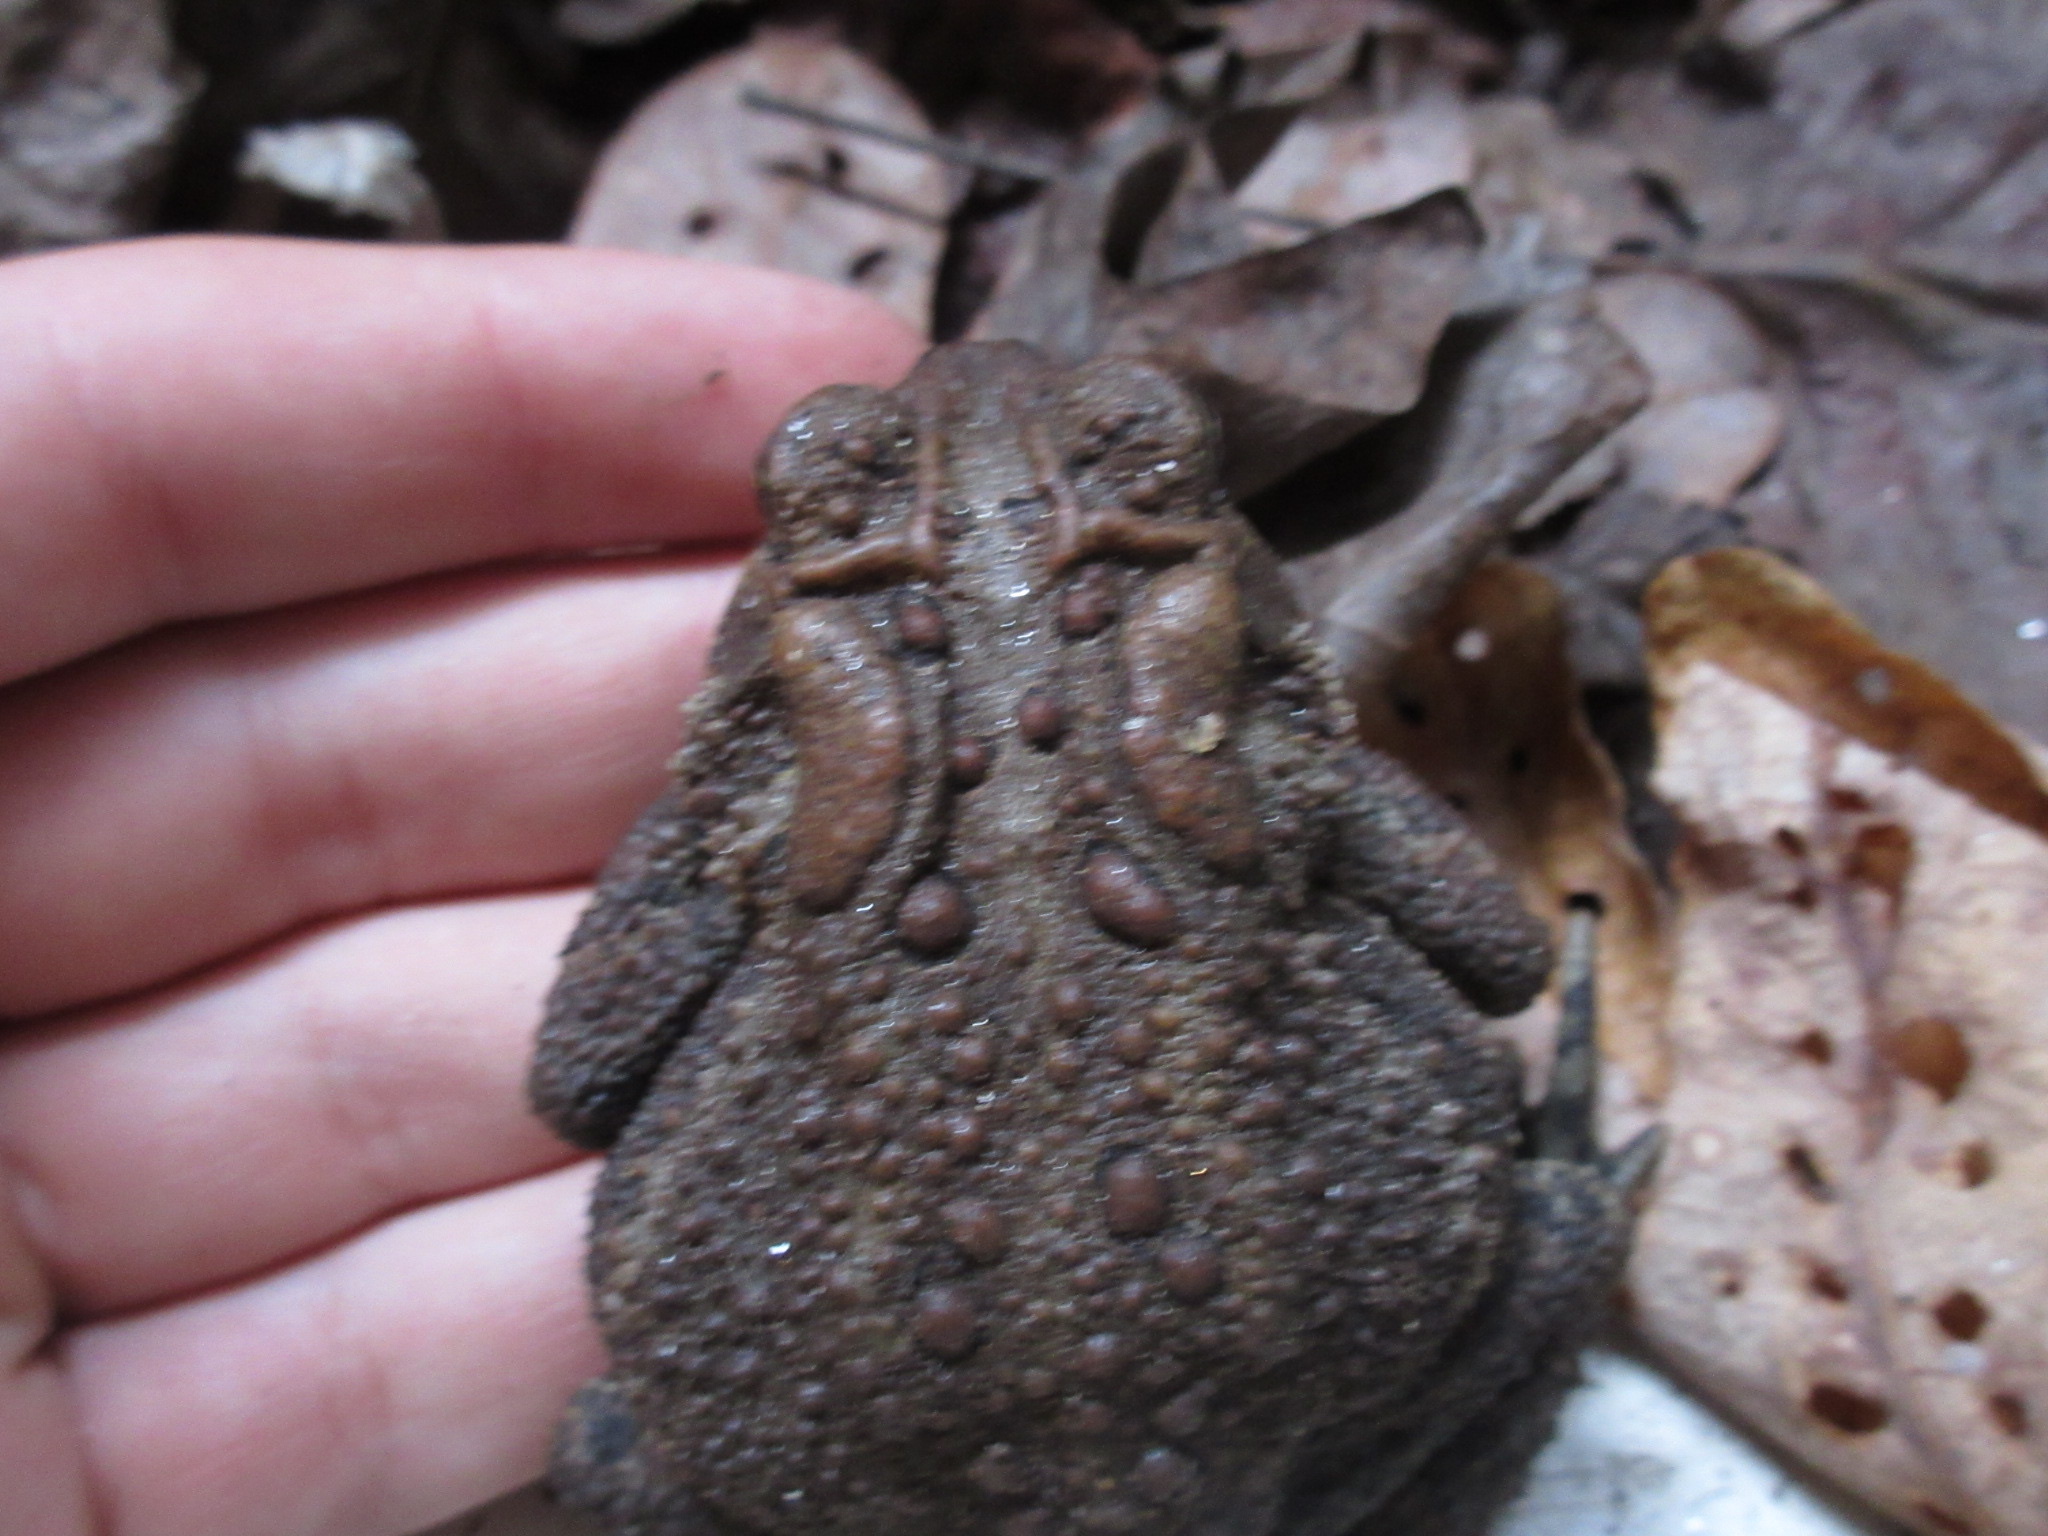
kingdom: Animalia
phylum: Chordata
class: Amphibia
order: Anura
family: Bufonidae
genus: Anaxyrus
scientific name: Anaxyrus americanus
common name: American toad
